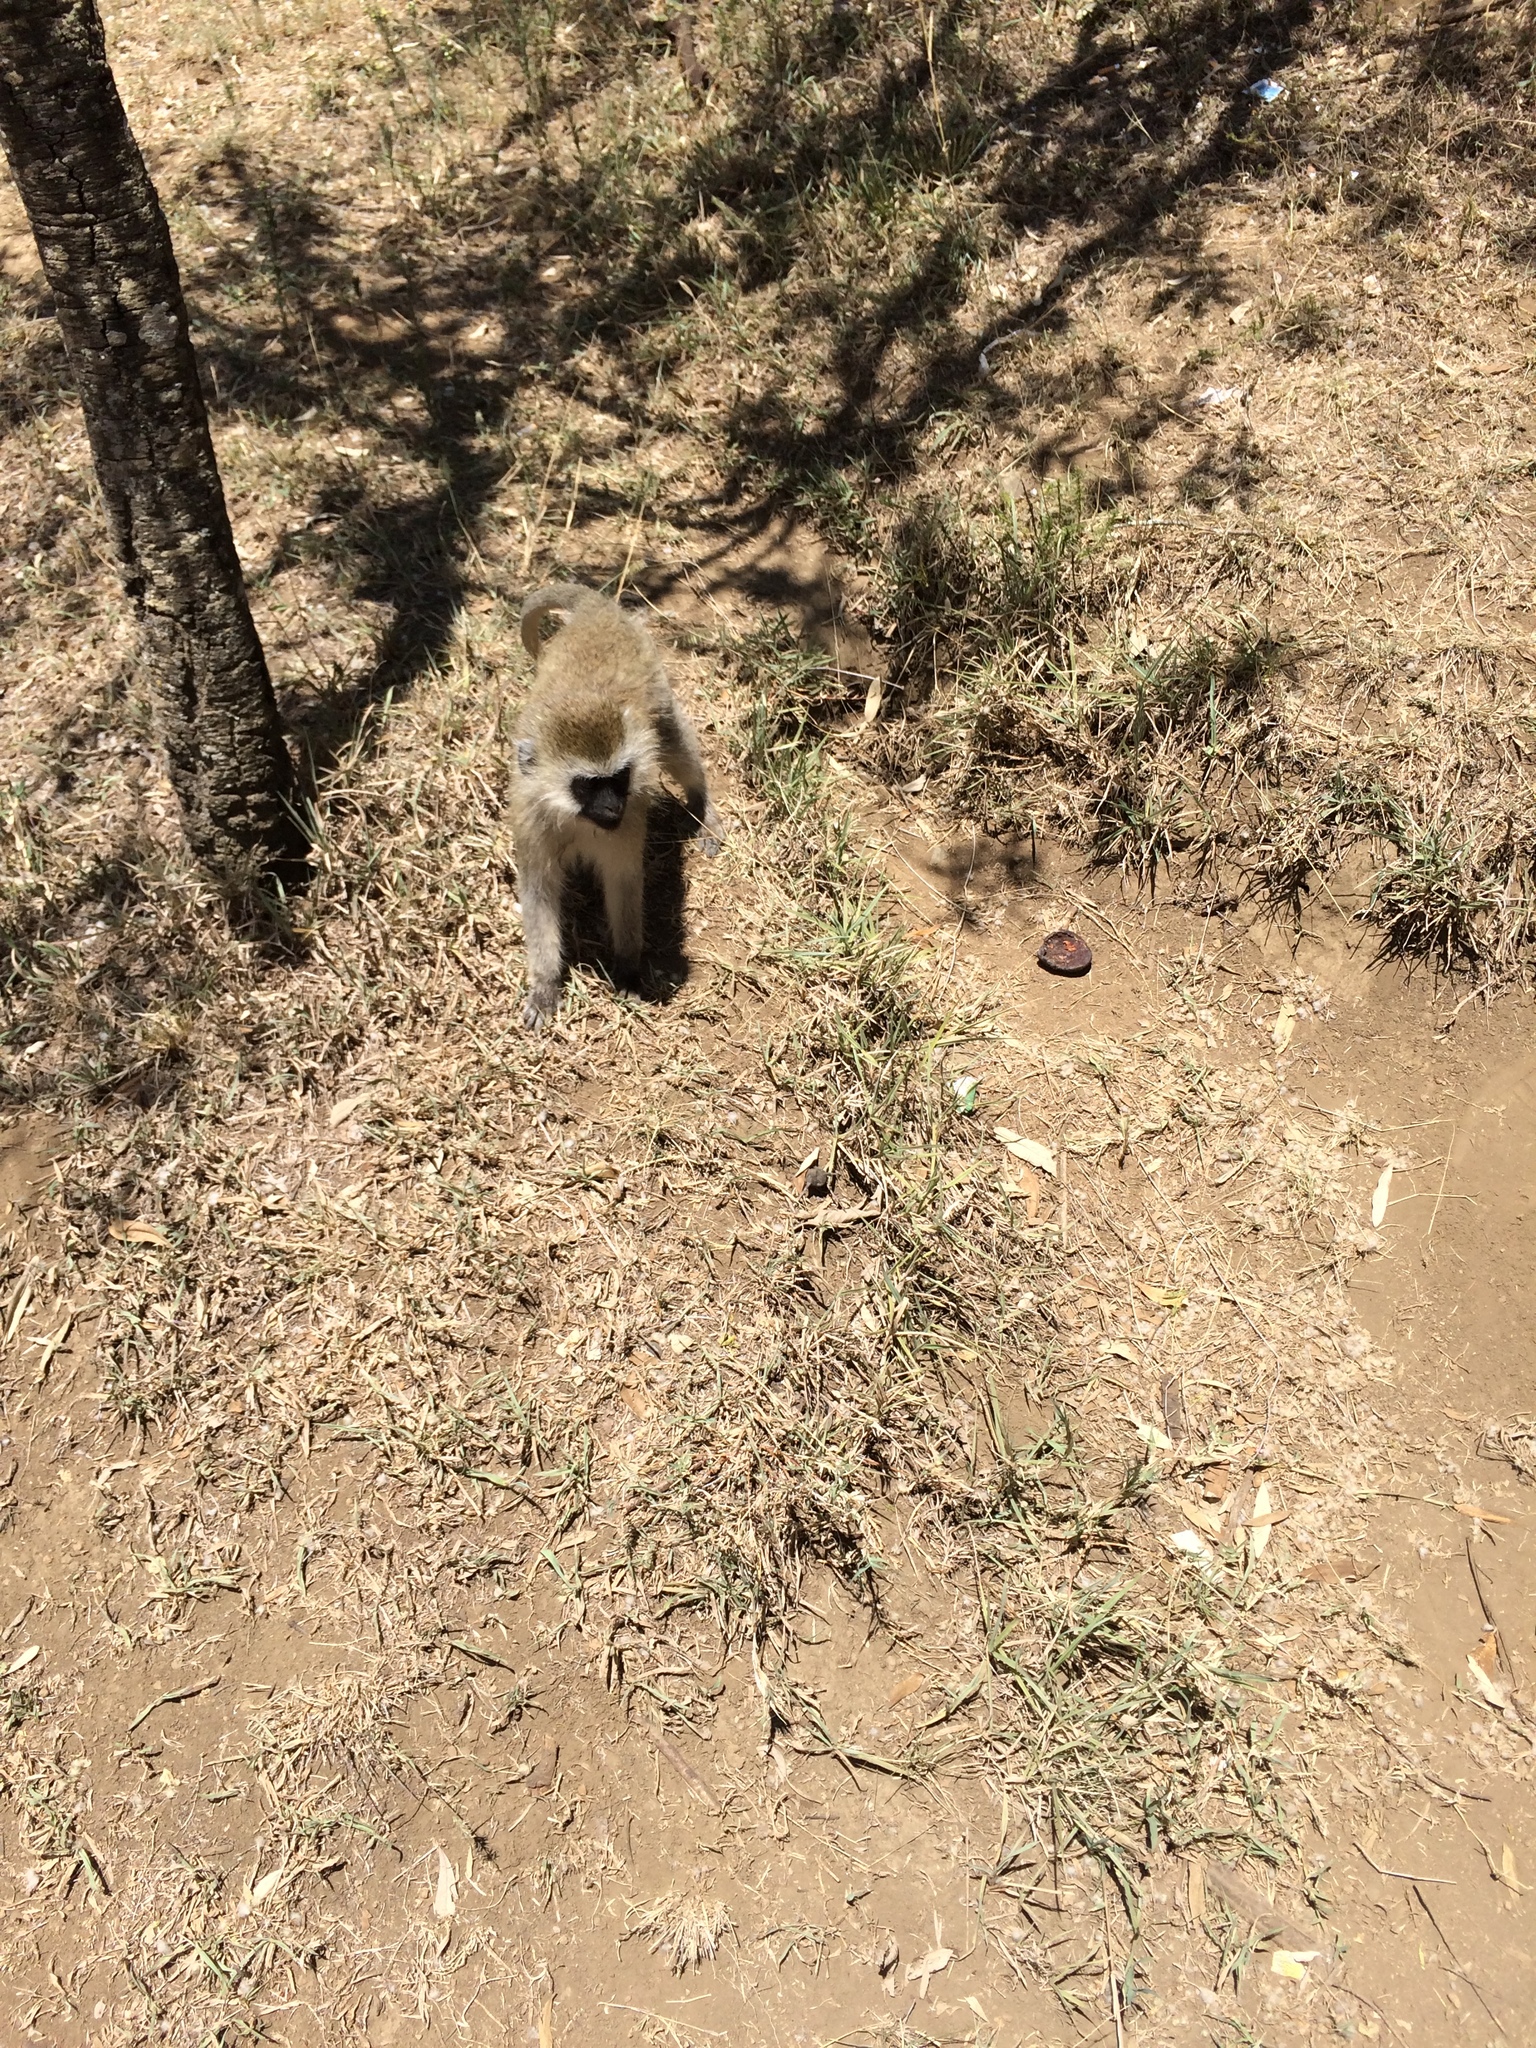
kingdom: Animalia
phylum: Chordata
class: Mammalia
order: Primates
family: Cercopithecidae
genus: Chlorocebus
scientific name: Chlorocebus pygerythrus
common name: Vervet monkey
